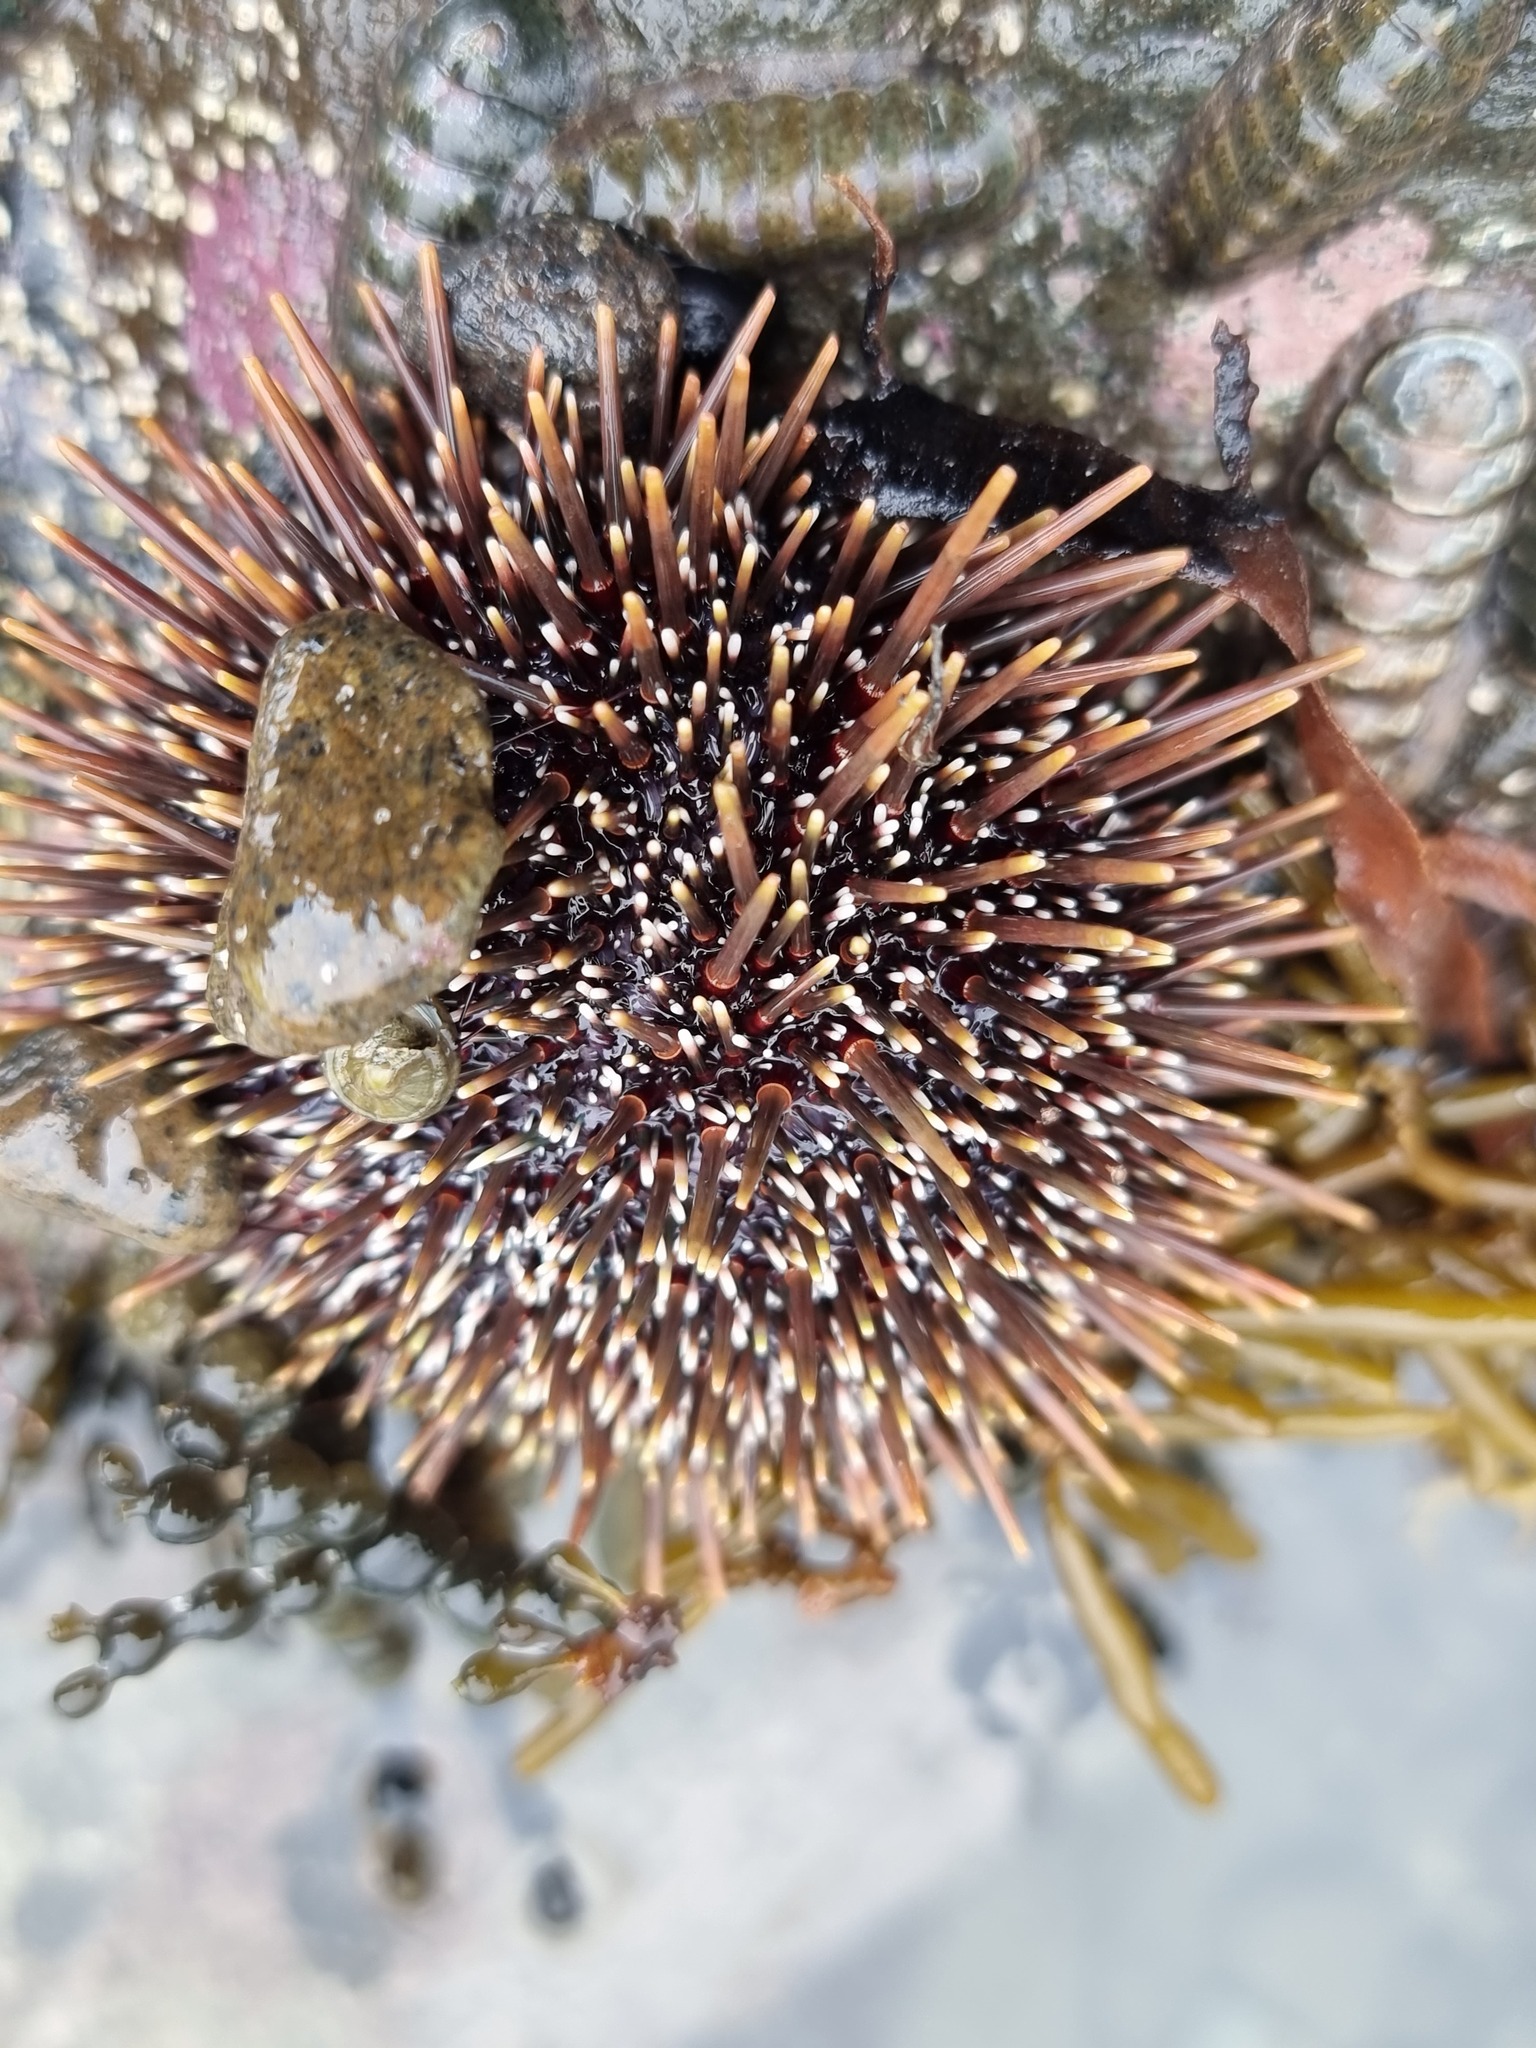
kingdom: Animalia
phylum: Echinodermata
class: Echinoidea
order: Camarodonta
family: Echinometridae
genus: Evechinus
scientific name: Evechinus chloroticus
